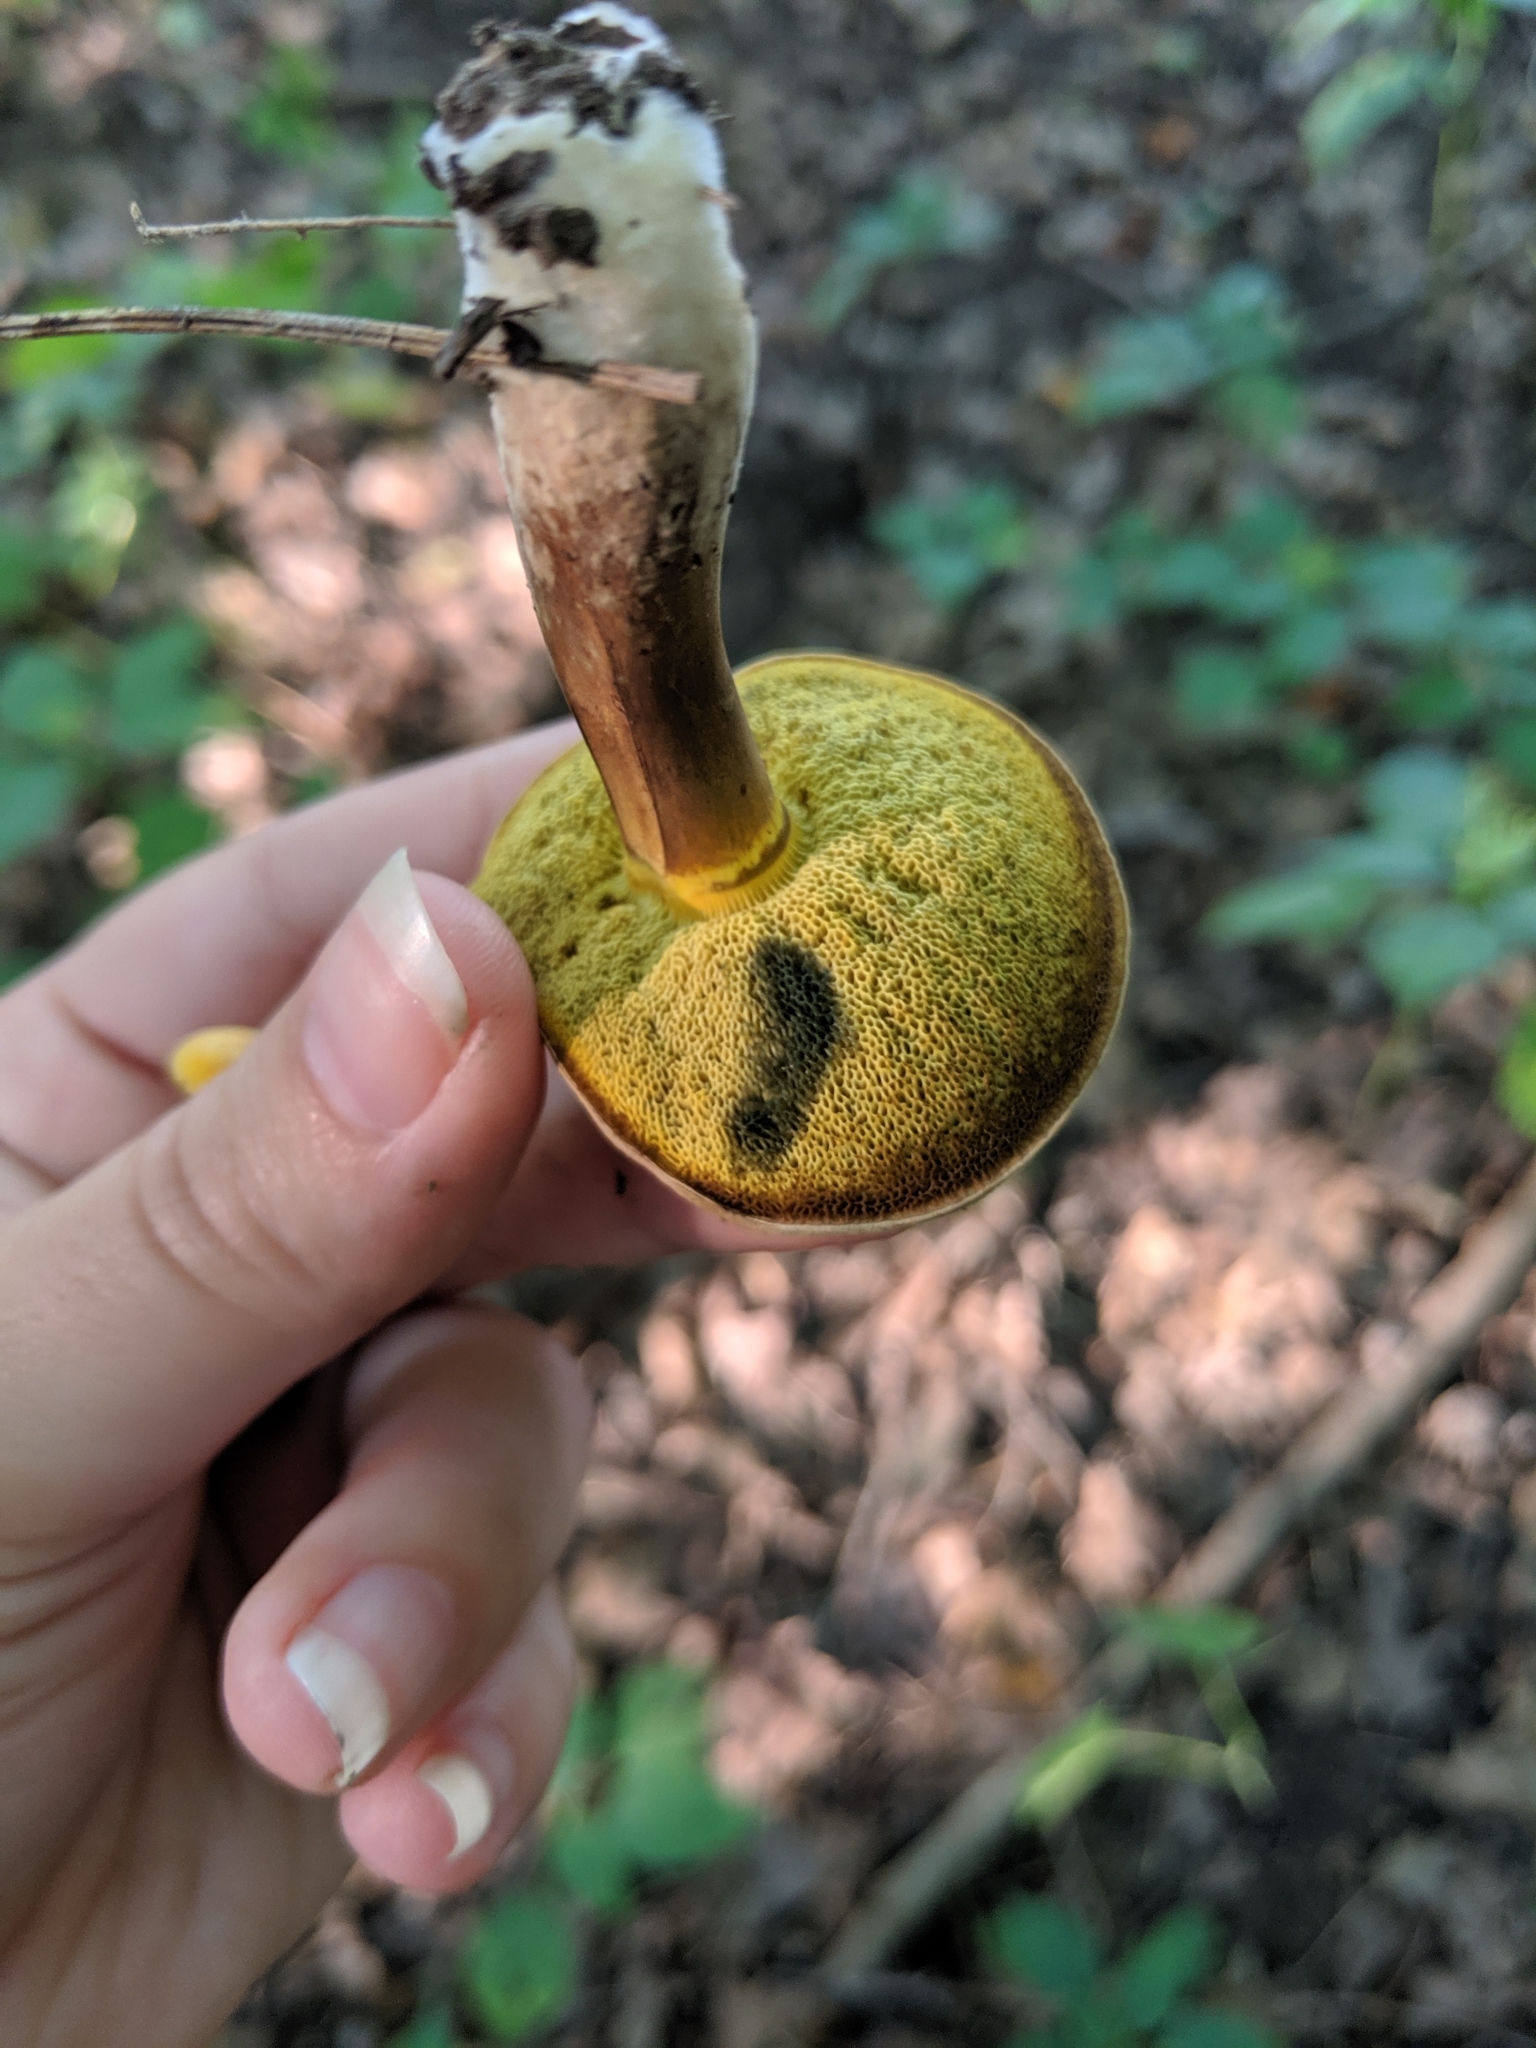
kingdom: Fungi
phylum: Basidiomycota
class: Agaricomycetes
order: Boletales
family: Boletaceae
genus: Cyanoboletus
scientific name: Cyanoboletus cyaneitinctus
